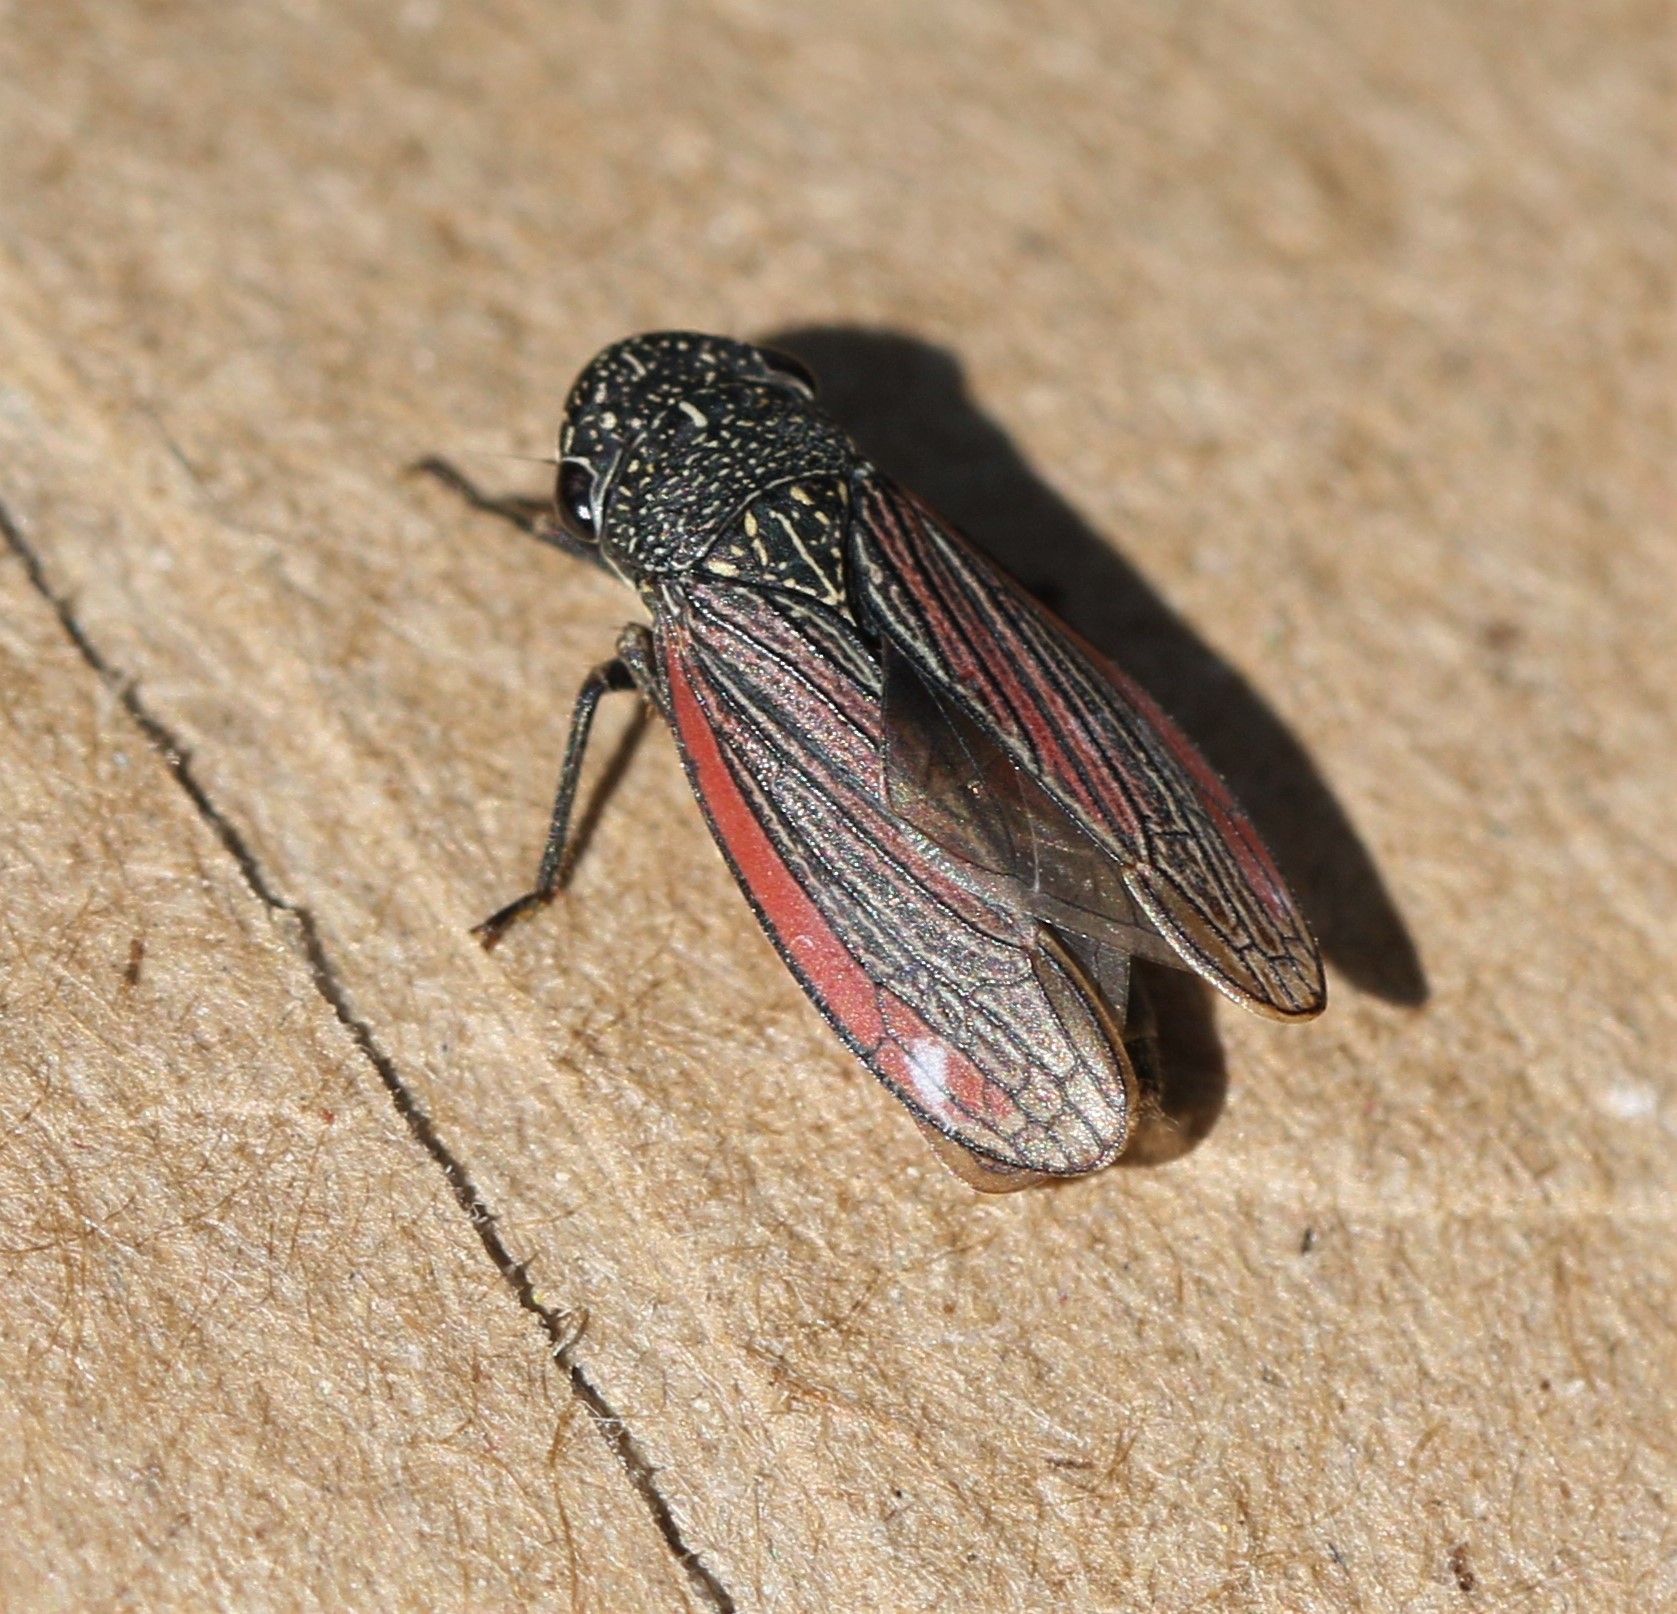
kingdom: Animalia
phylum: Arthropoda
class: Insecta
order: Hemiptera
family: Cicadellidae
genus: Cuerna
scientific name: Cuerna striata
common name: Striped leafhopper
